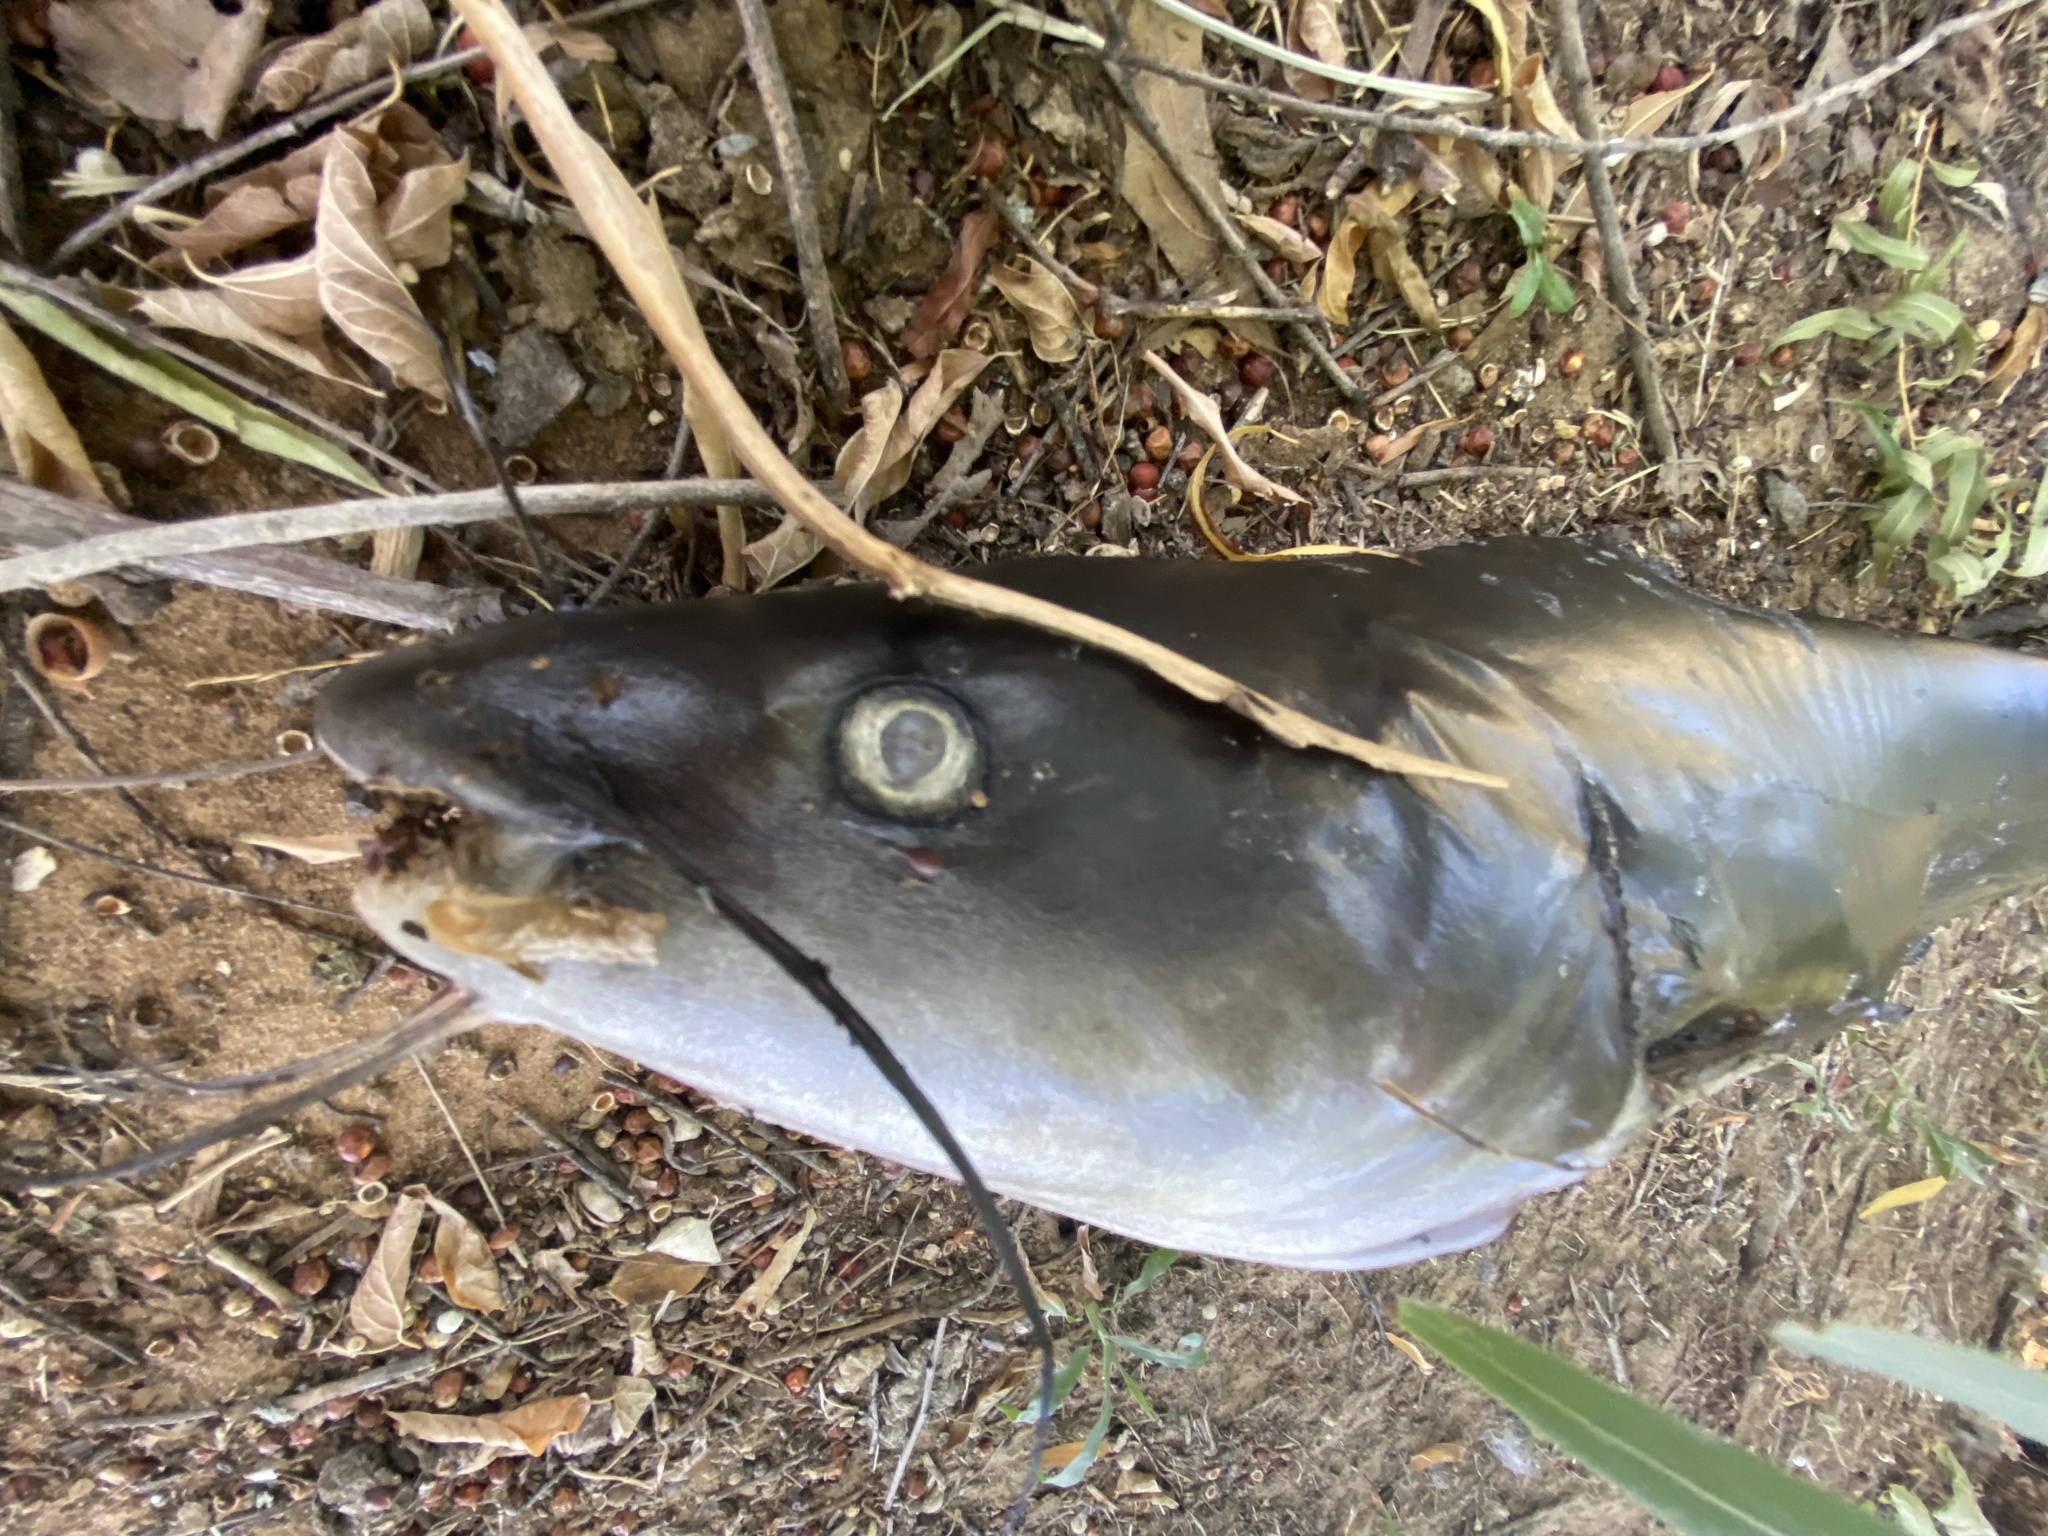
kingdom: Animalia
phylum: Chordata
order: Siluriformes
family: Ictaluridae
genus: Ictalurus
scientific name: Ictalurus punctatus
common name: Channel catfish
